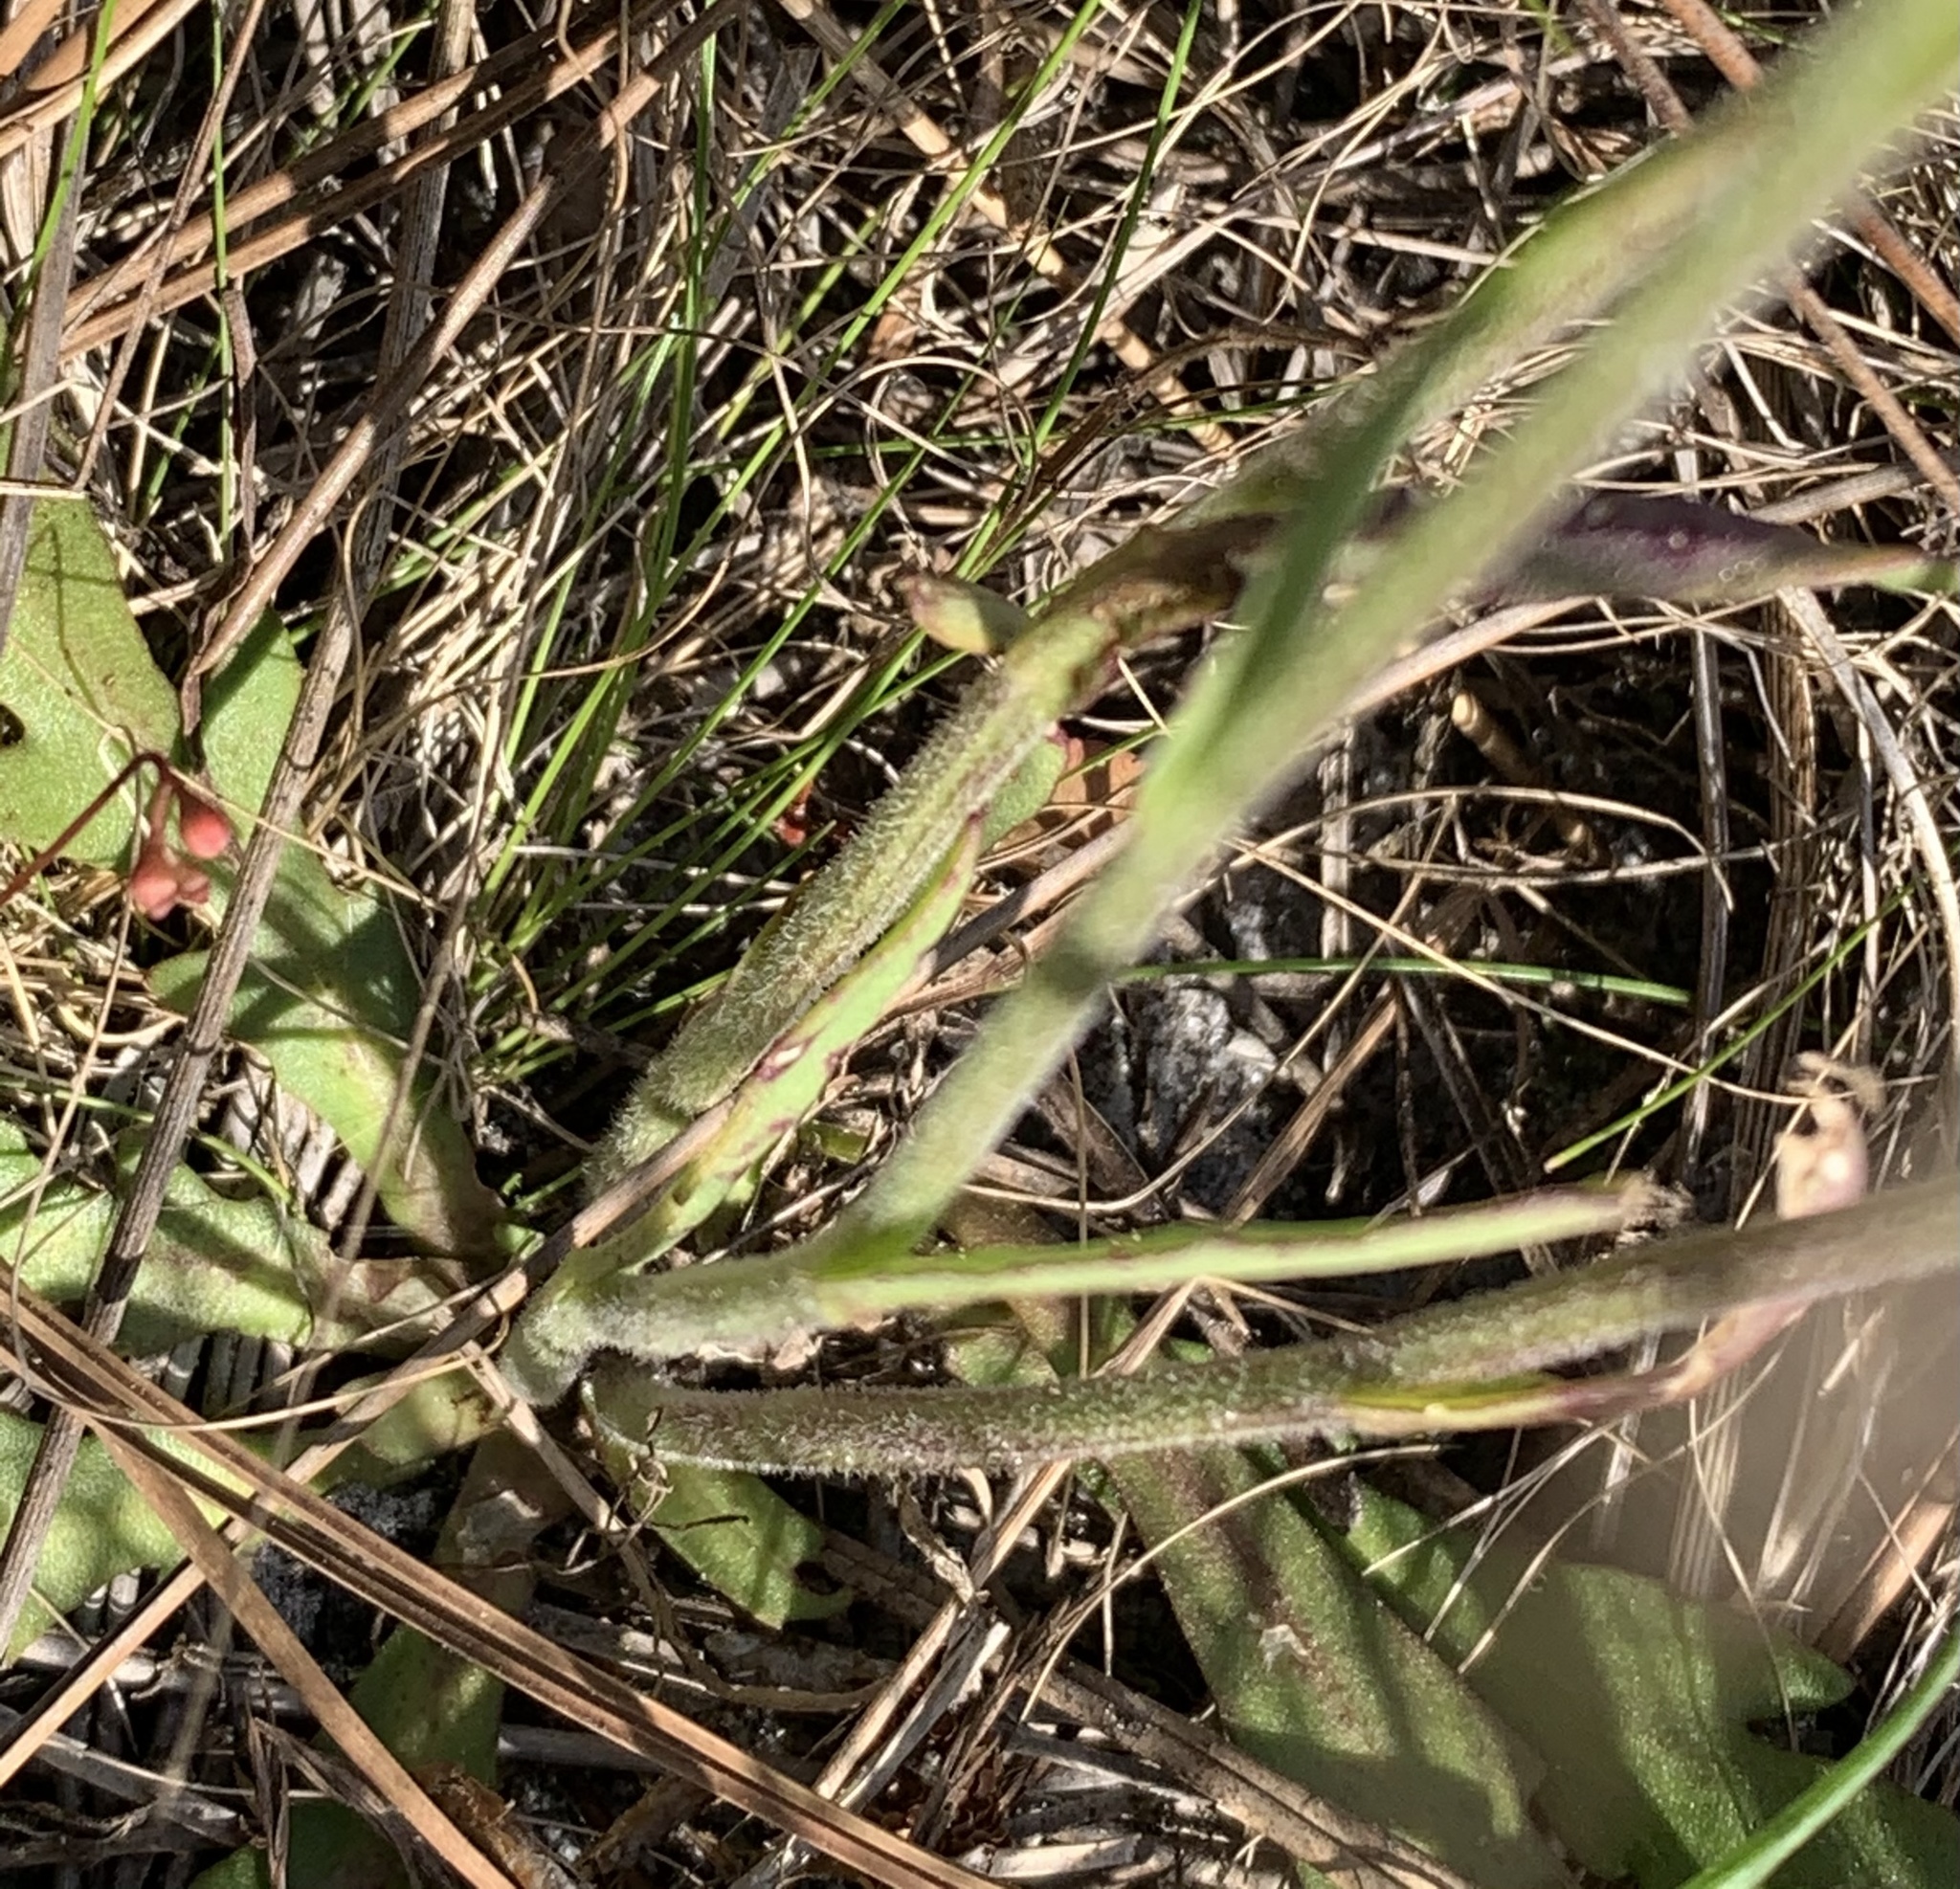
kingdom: Plantae
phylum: Tracheophyta
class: Magnoliopsida
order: Asterales
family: Asteraceae
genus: Helenium
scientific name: Helenium pinnatifidum
